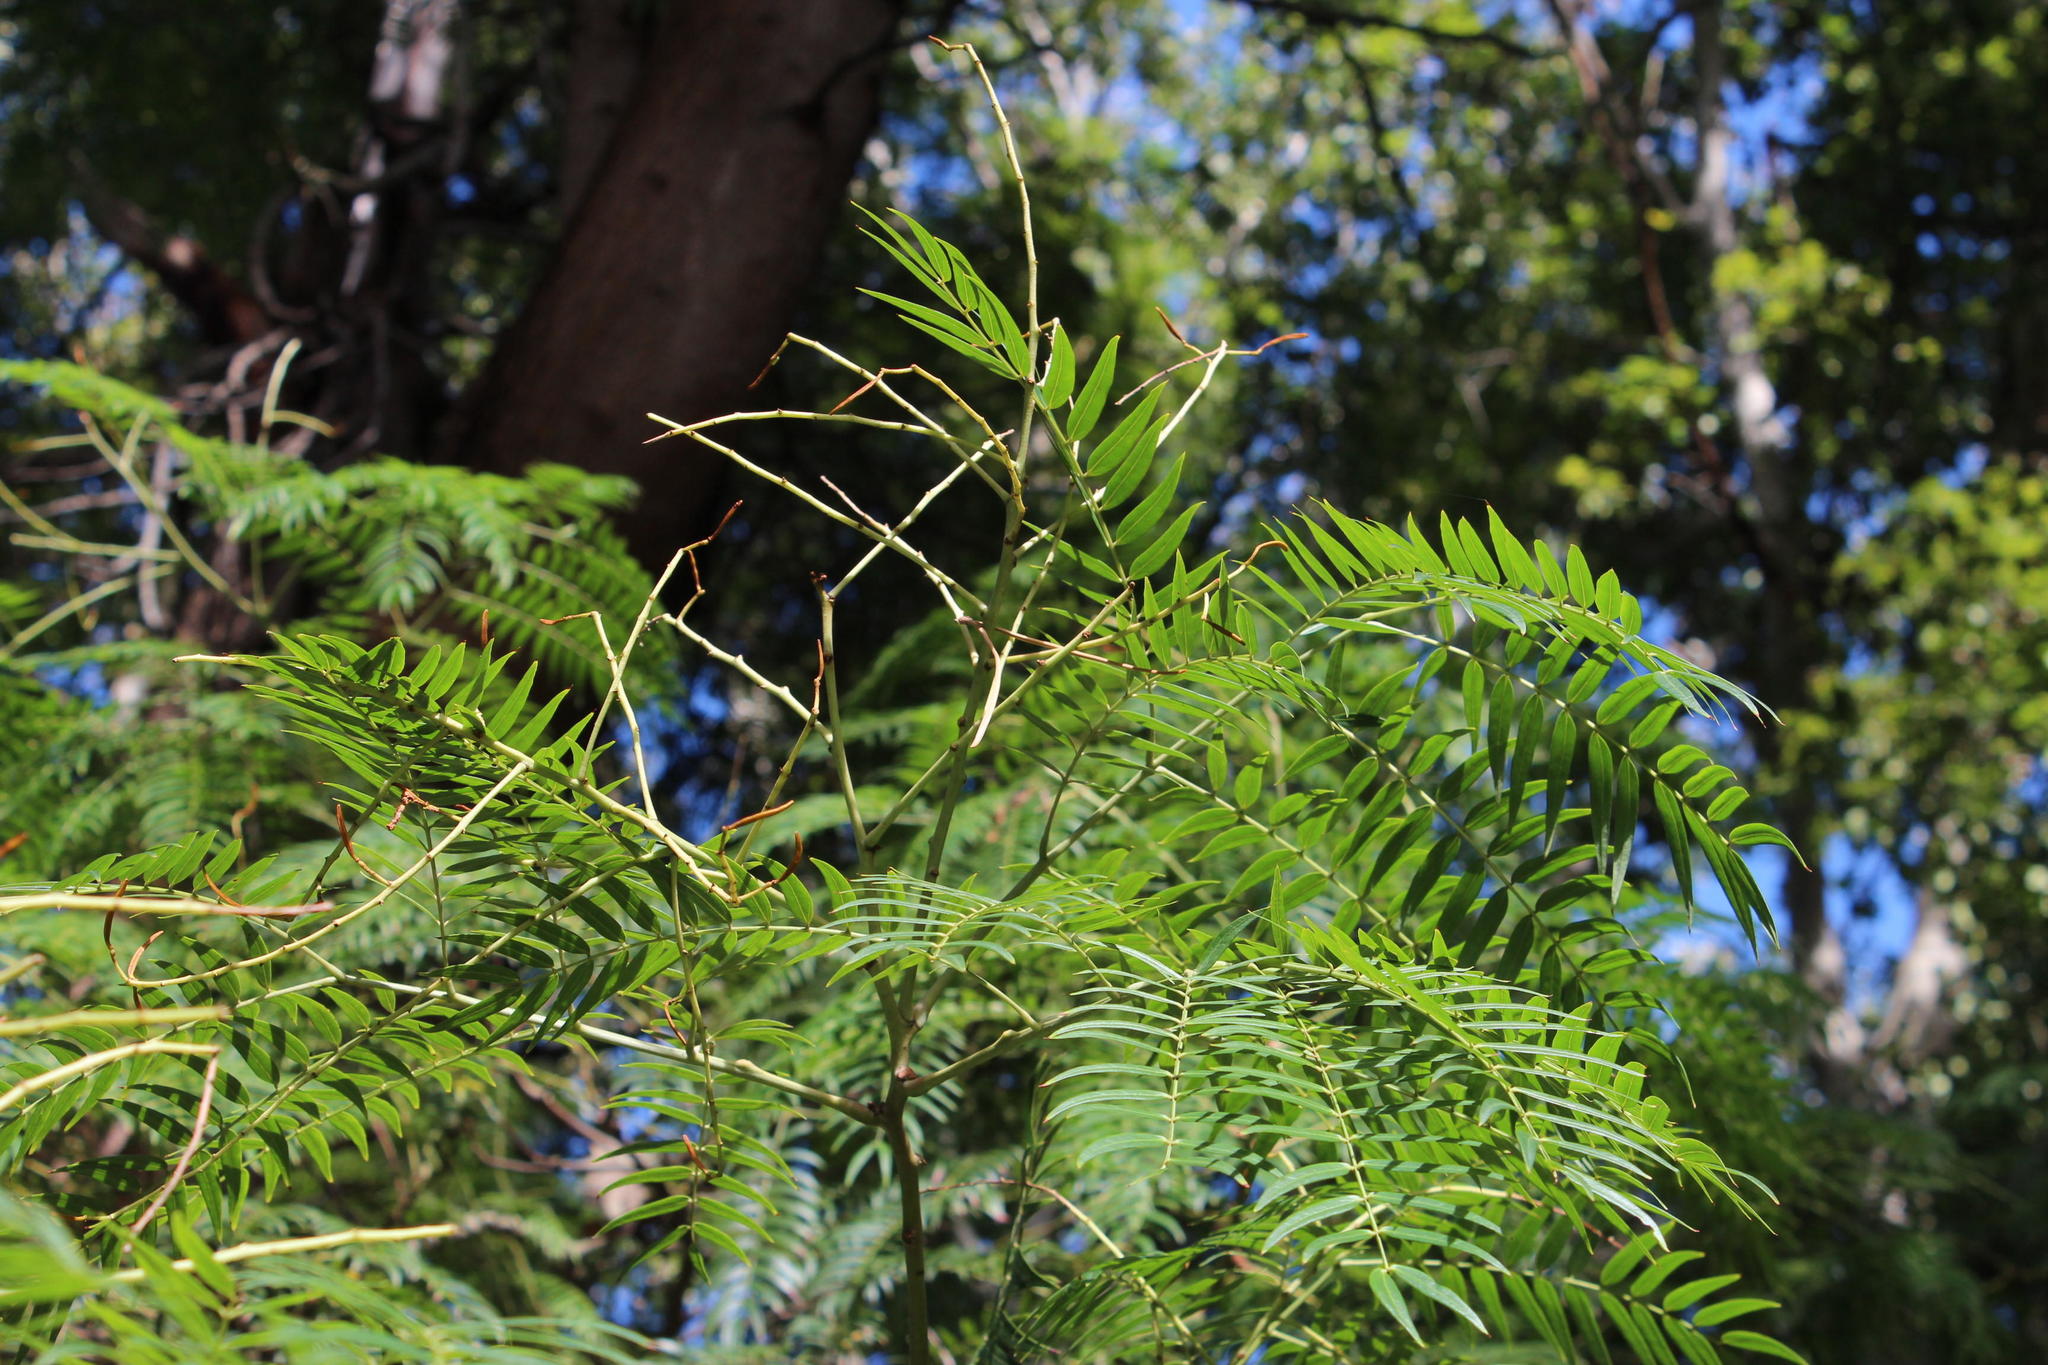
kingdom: Plantae
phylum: Tracheophyta
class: Magnoliopsida
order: Sapindales
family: Anacardiaceae
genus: Schinus
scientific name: Schinus molle
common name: Peruvian peppertree
